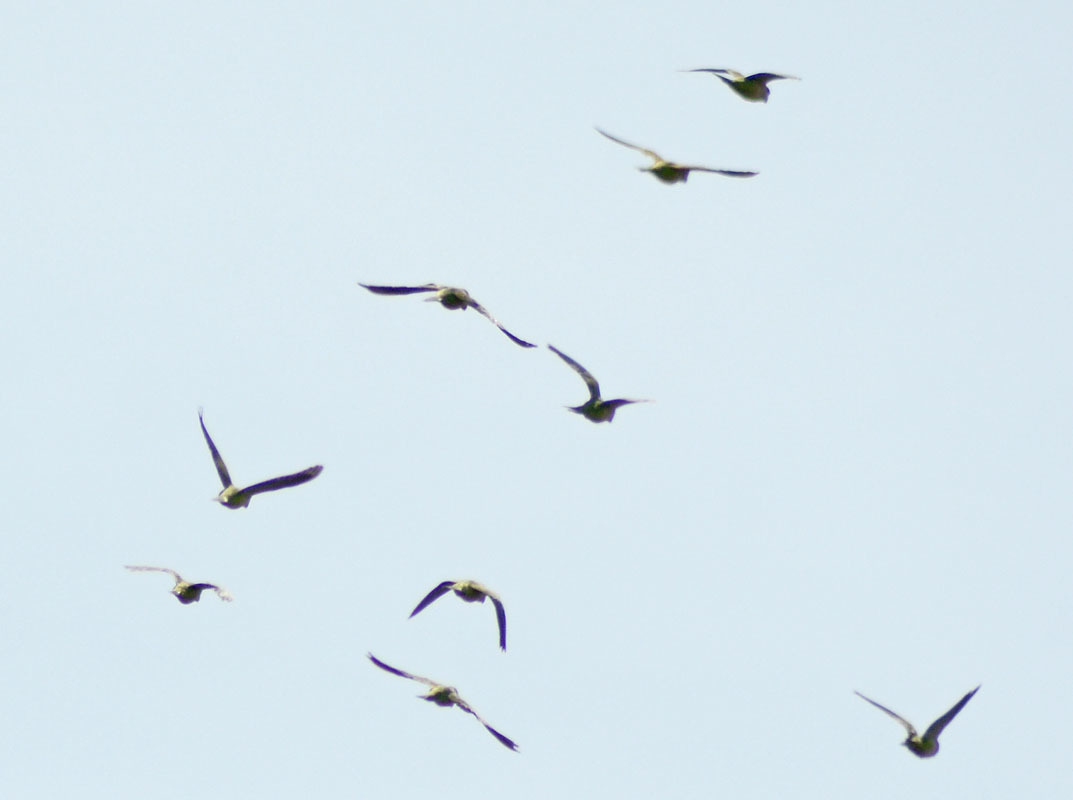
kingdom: Animalia
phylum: Chordata
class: Aves
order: Psittaciformes
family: Psittacidae
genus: Myiopsitta
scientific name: Myiopsitta monachus
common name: Monk parakeet
